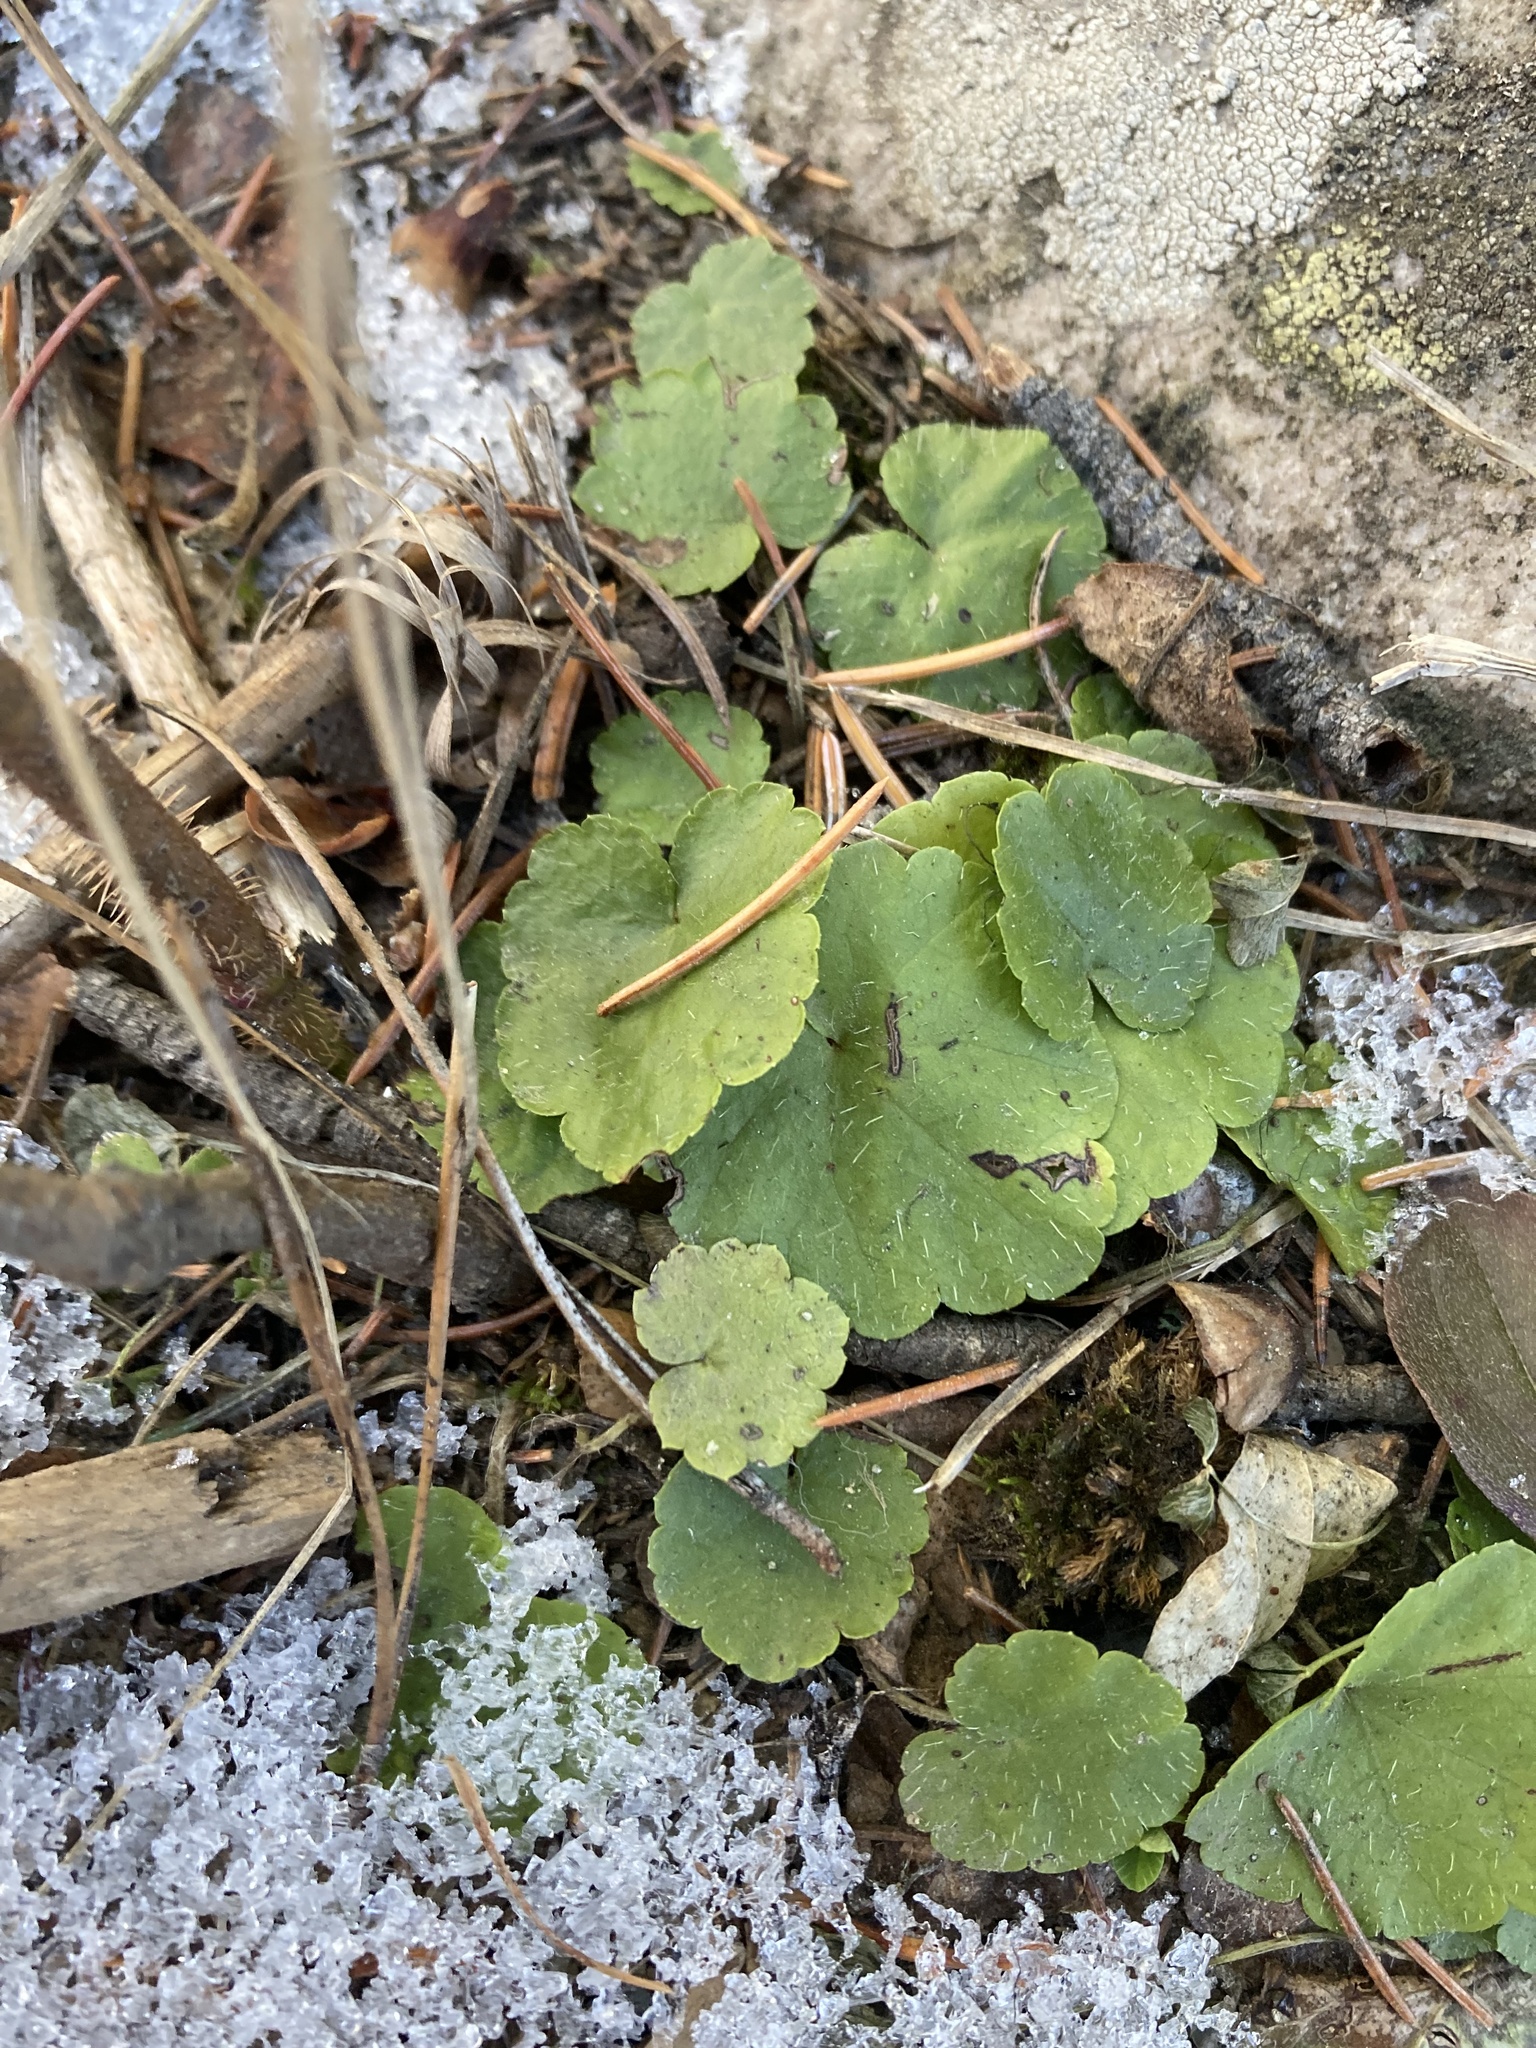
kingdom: Plantae
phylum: Tracheophyta
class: Magnoliopsida
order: Saxifragales
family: Saxifragaceae
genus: Mitella
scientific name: Mitella nuda
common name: Bare-stemmed bishop's-cap
